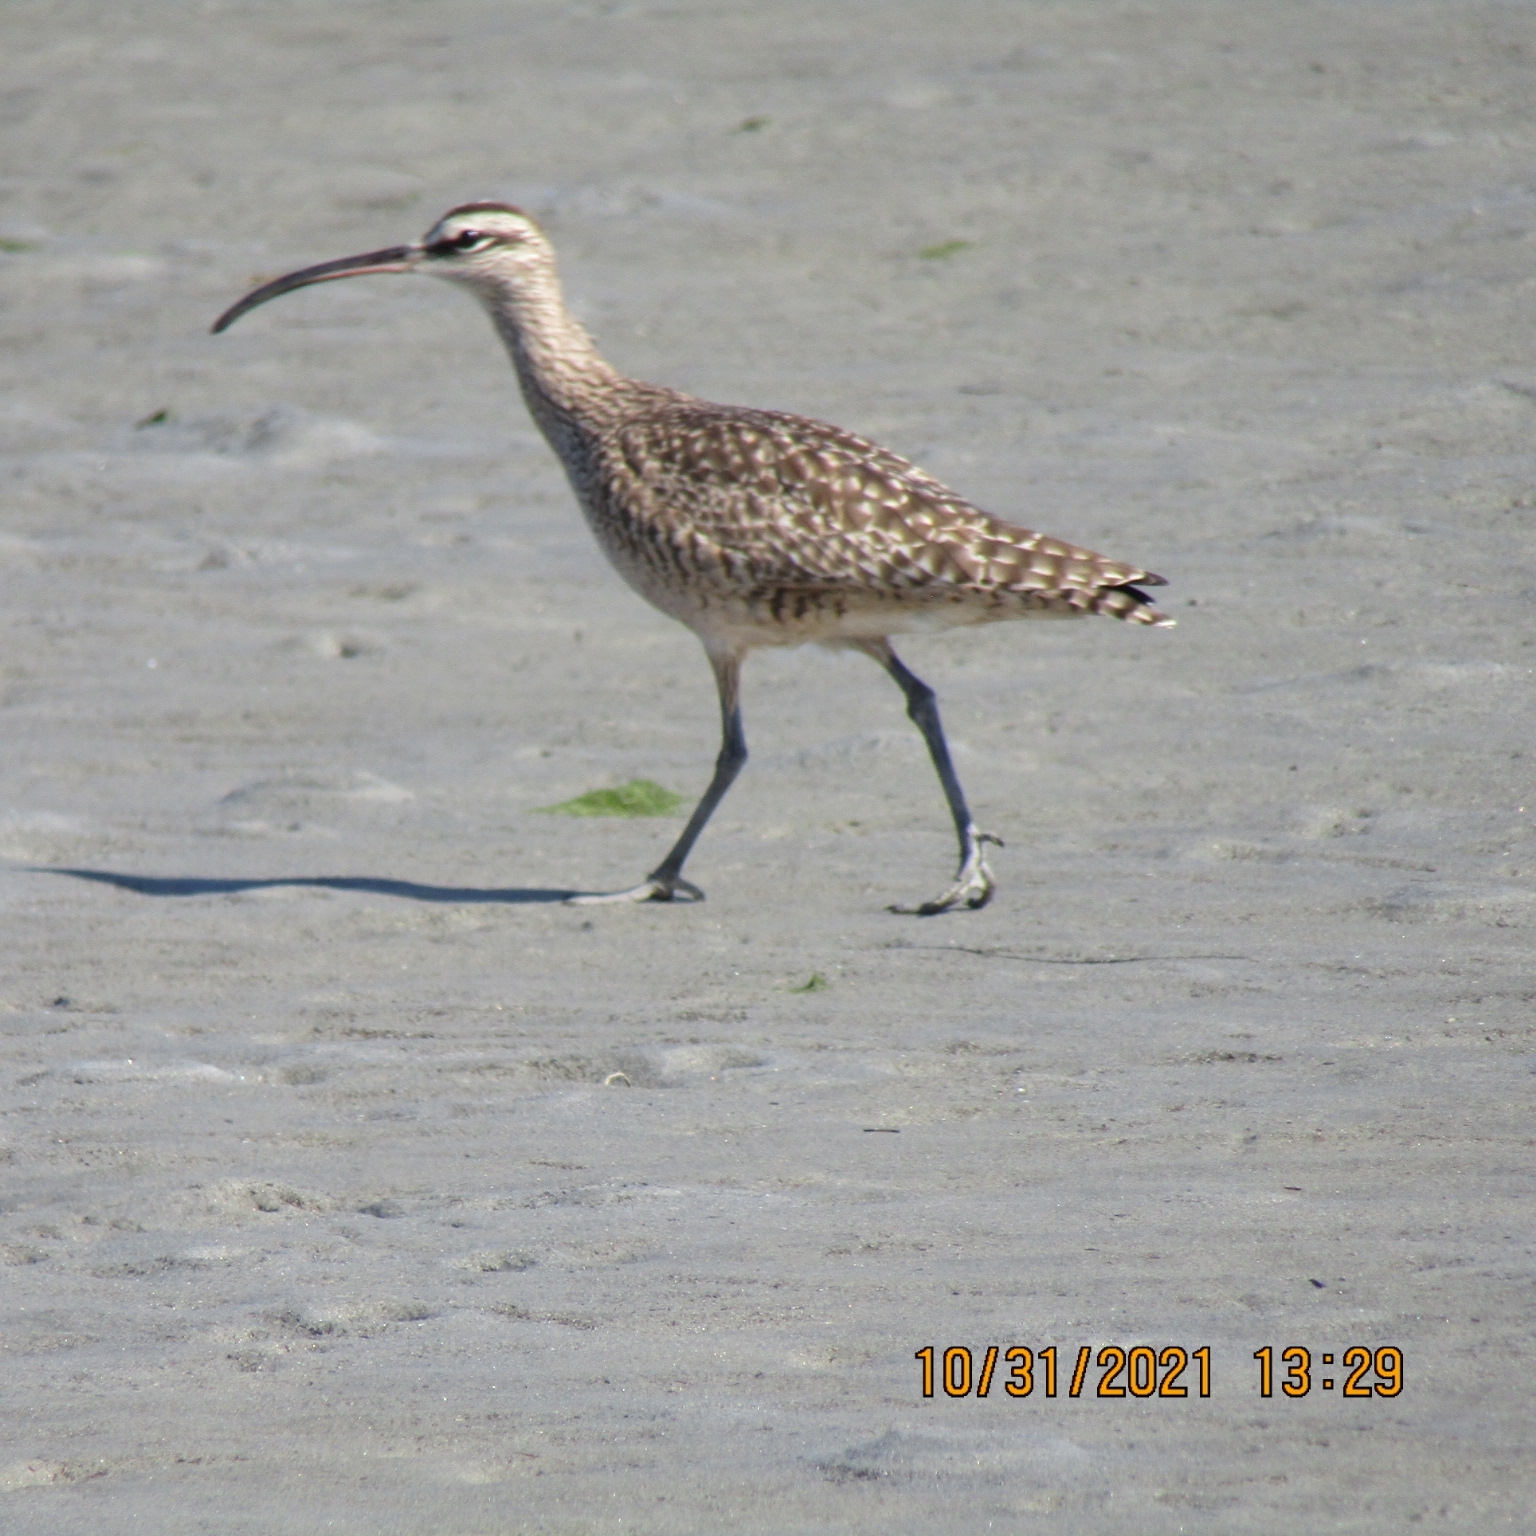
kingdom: Animalia
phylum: Chordata
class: Aves
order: Charadriiformes
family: Scolopacidae
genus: Numenius
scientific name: Numenius phaeopus
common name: Whimbrel
